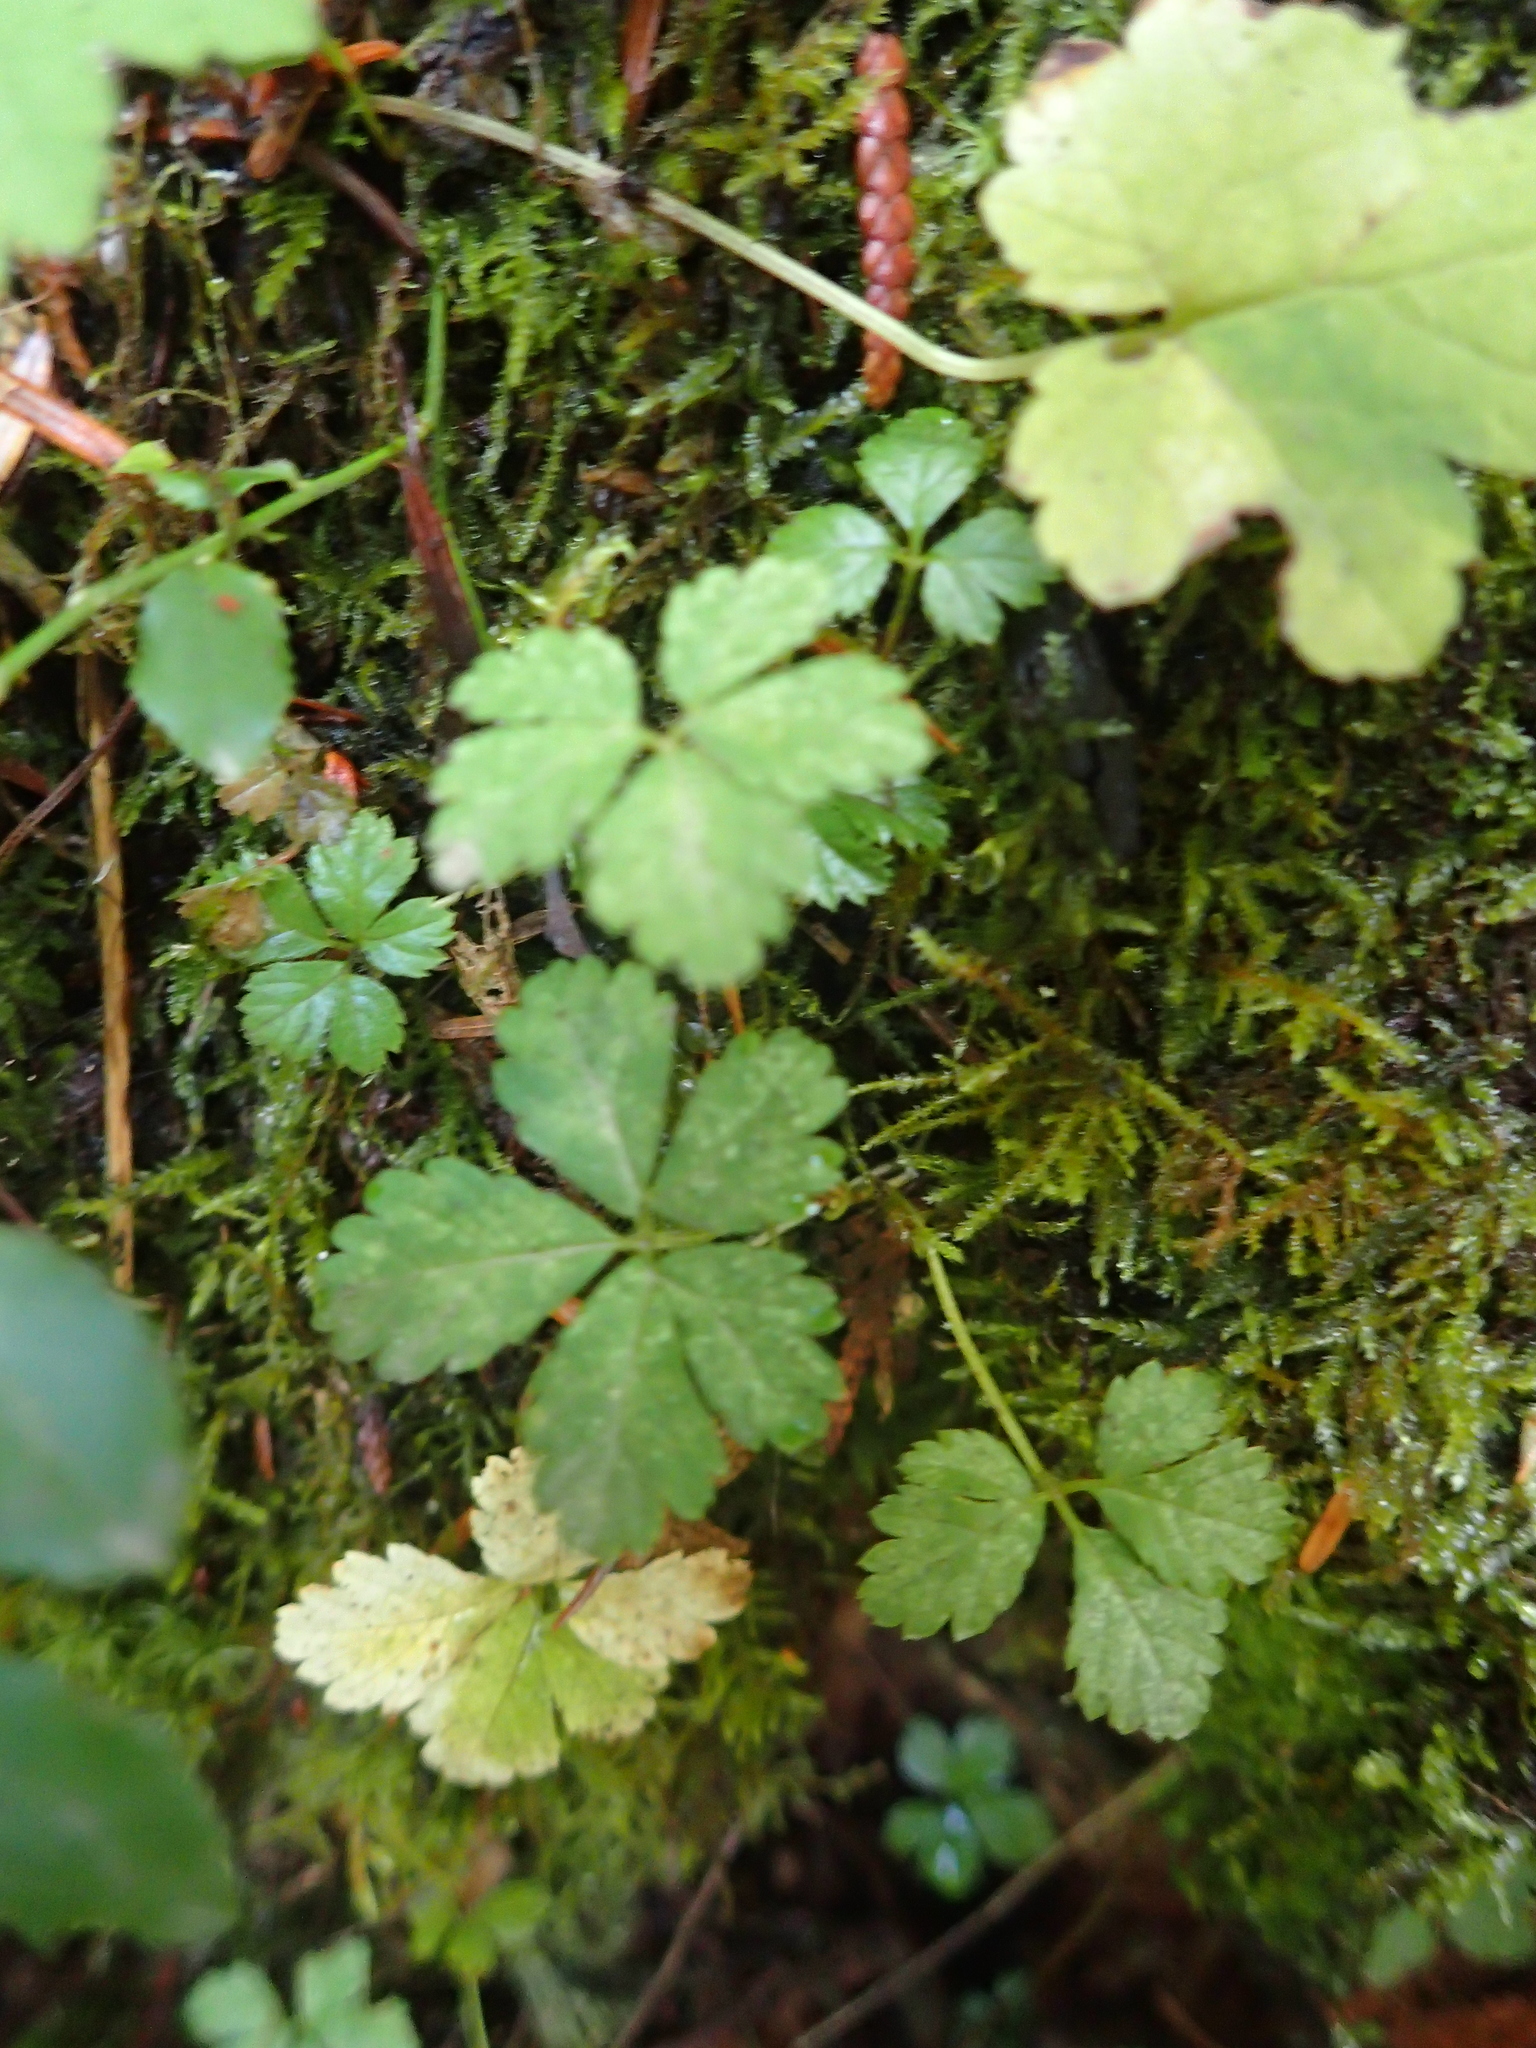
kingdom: Plantae
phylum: Tracheophyta
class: Magnoliopsida
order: Rosales
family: Rosaceae
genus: Rubus
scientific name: Rubus pedatus
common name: Creeping raspberry
